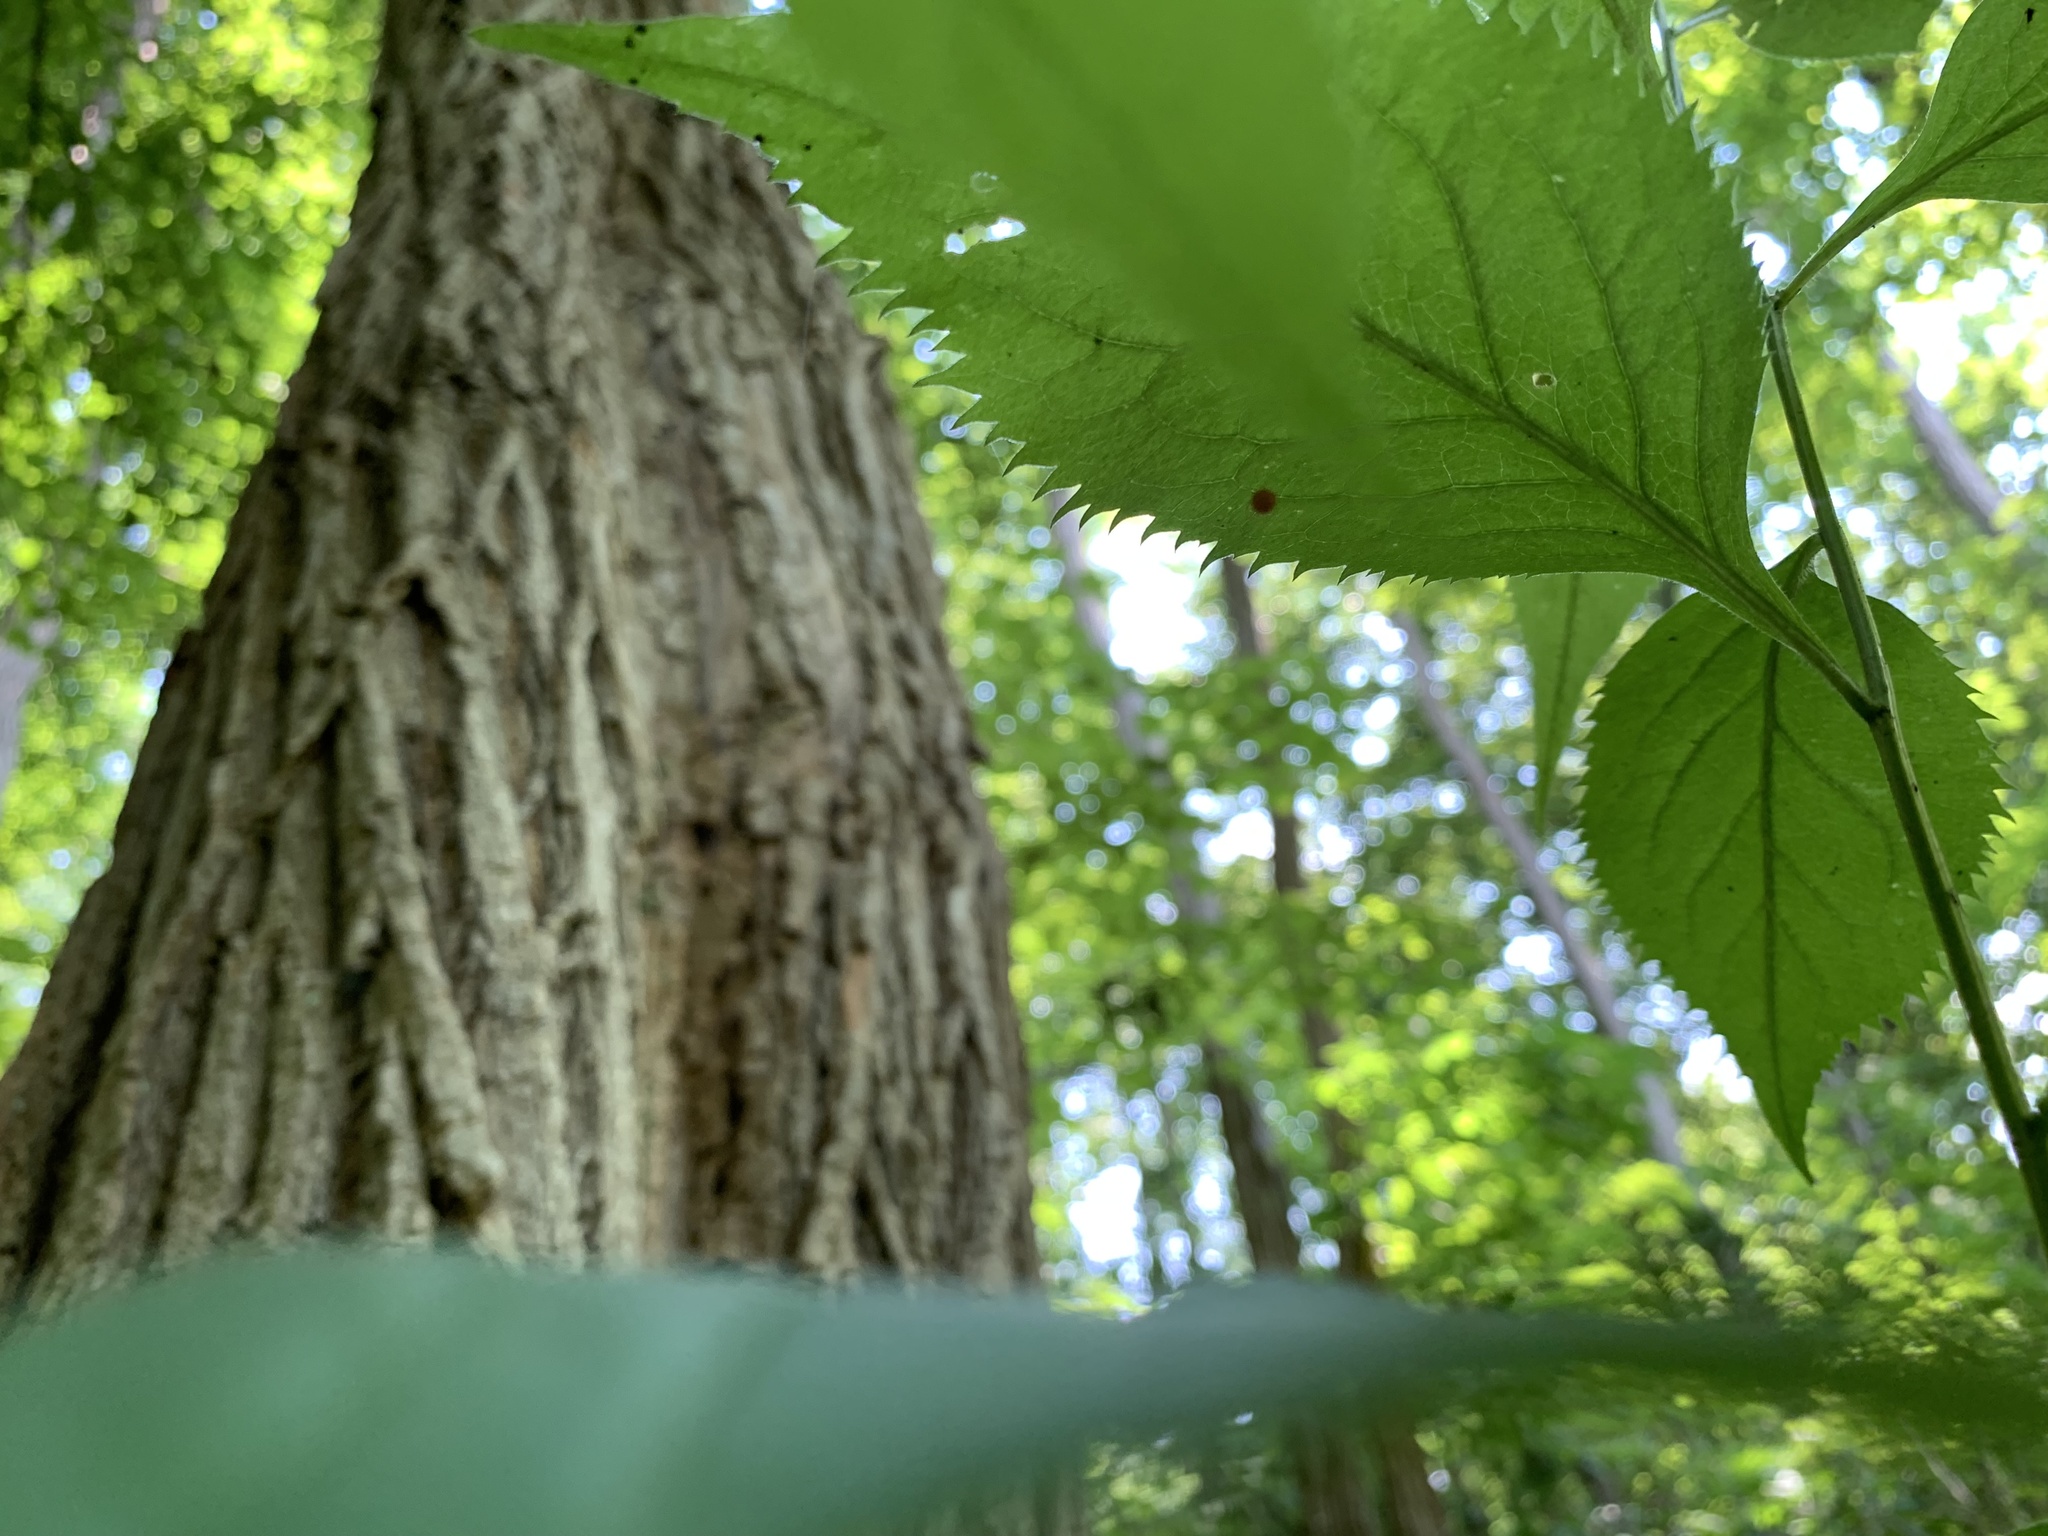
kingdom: Animalia
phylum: Arthropoda
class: Arachnida
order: Araneae
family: Theridiosomatidae
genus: Theridiosoma
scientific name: Theridiosoma gemmosum
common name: Ray spider
